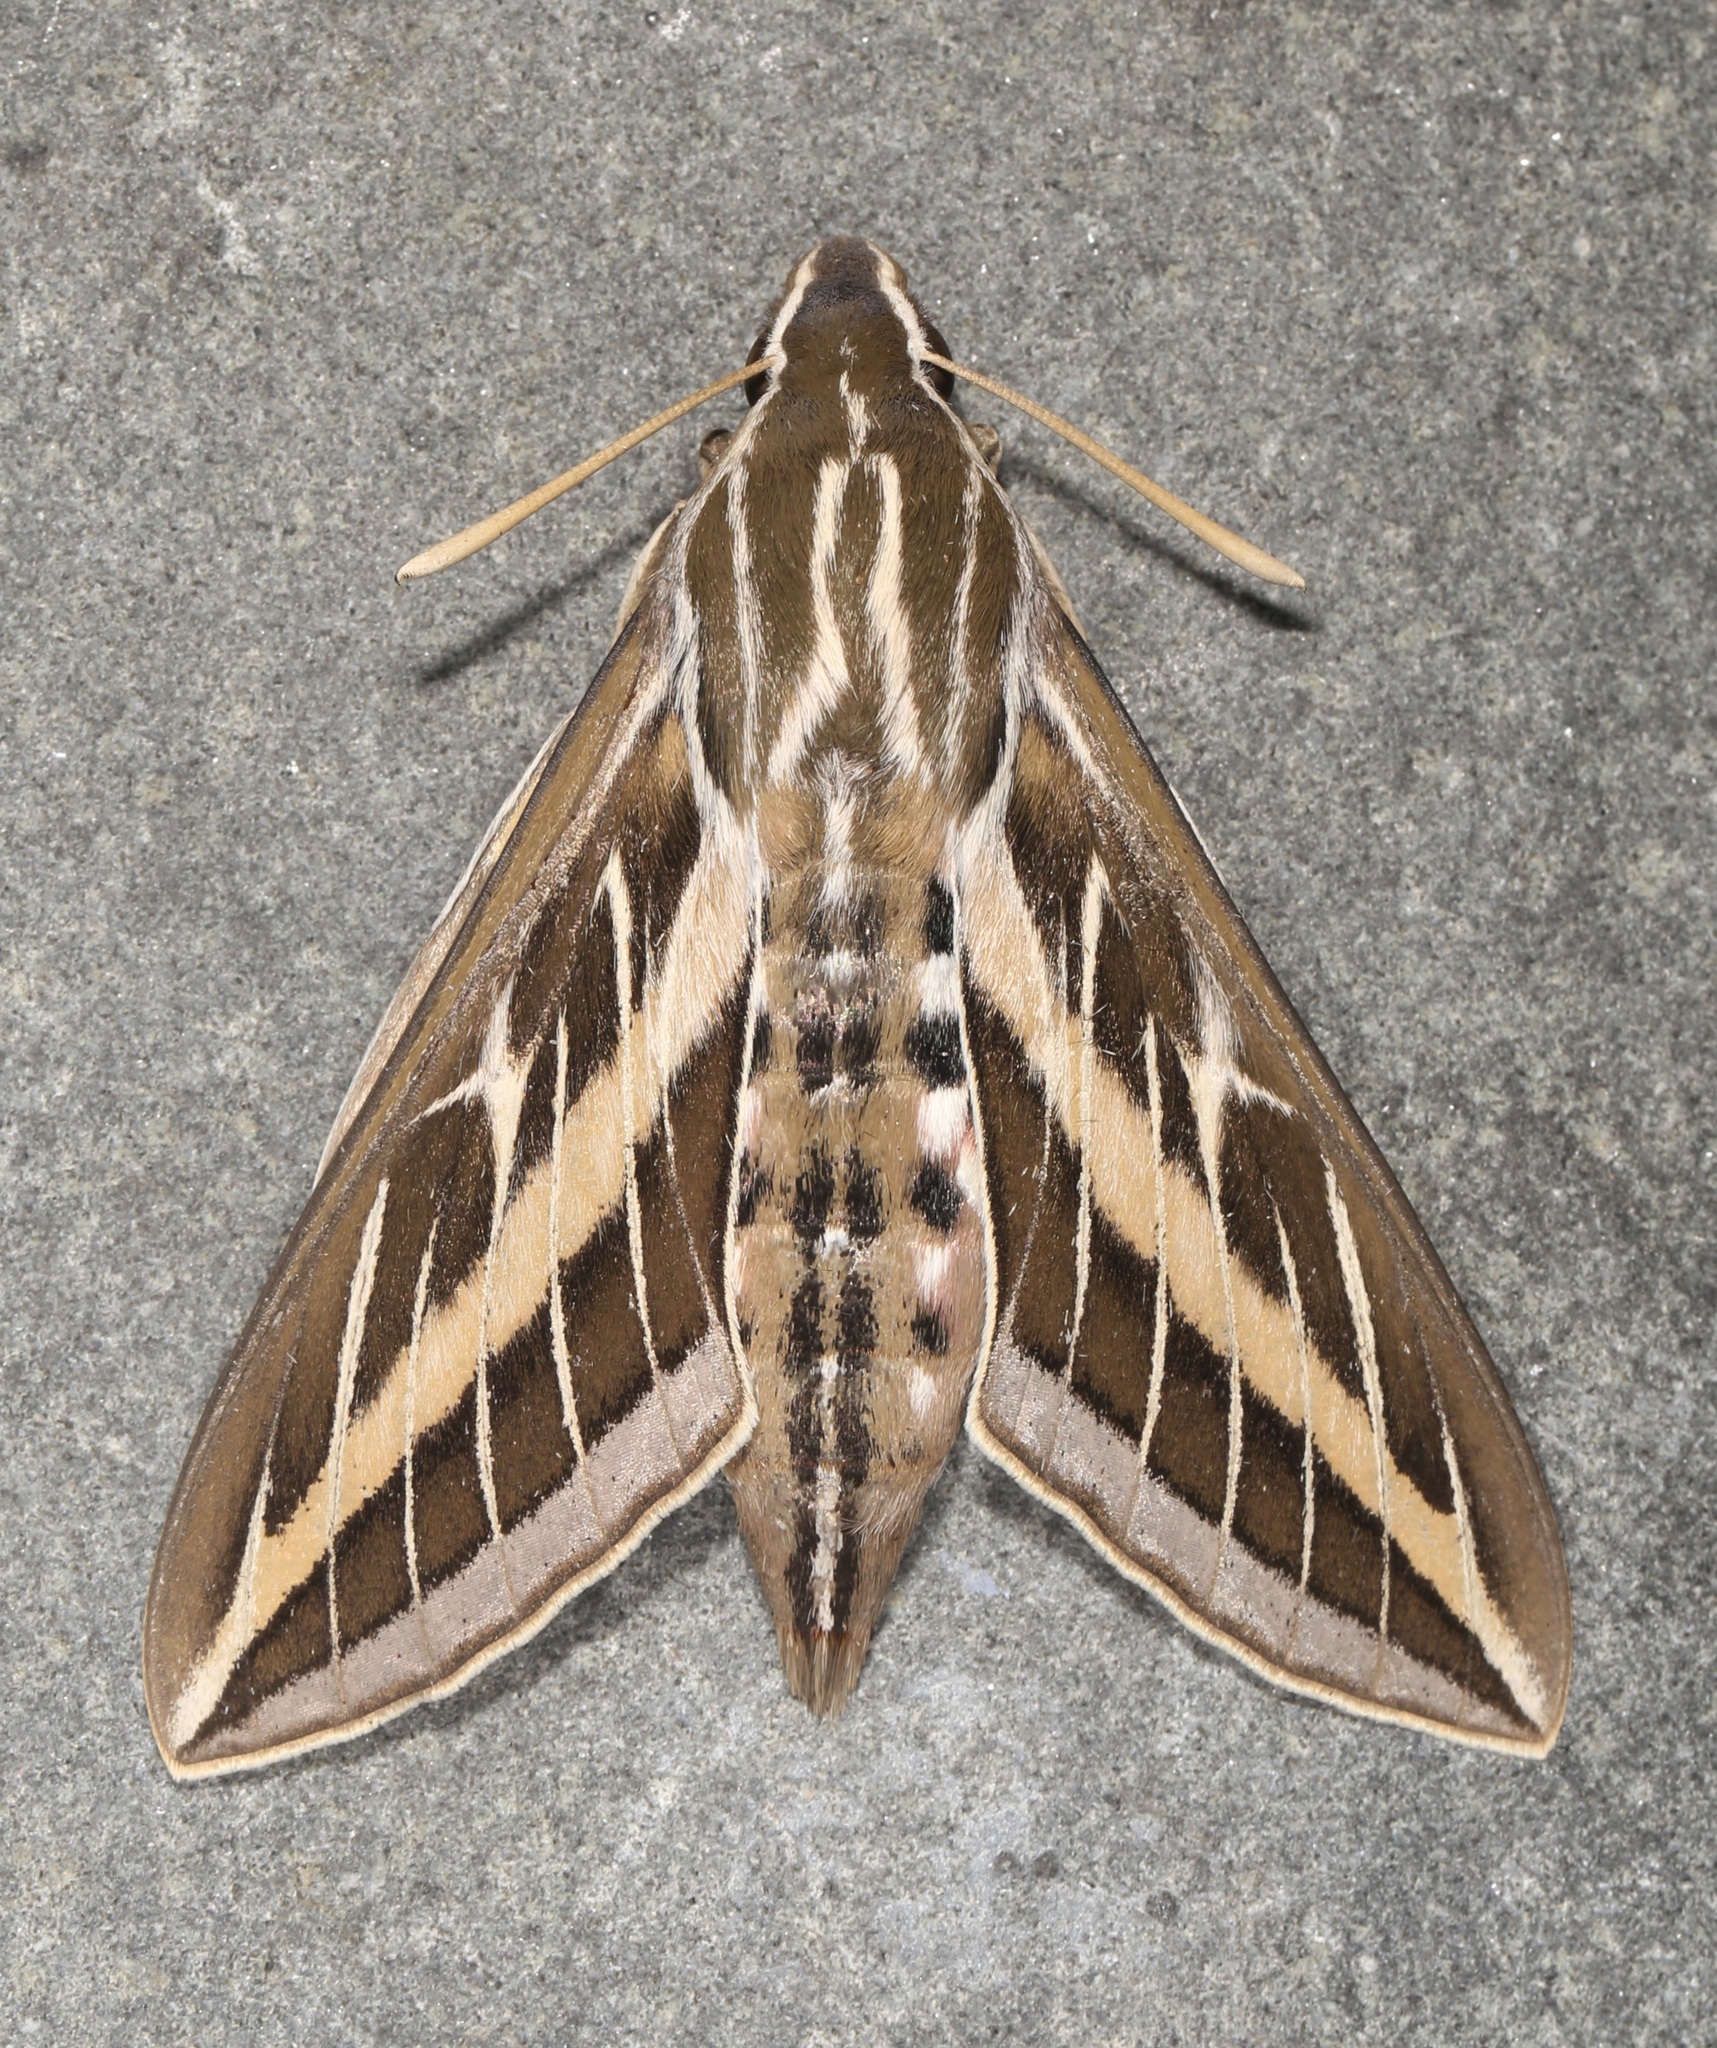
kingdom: Animalia
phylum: Arthropoda
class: Insecta
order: Lepidoptera
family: Sphingidae
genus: Hyles
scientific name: Hyles lineata
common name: White-lined sphinx
